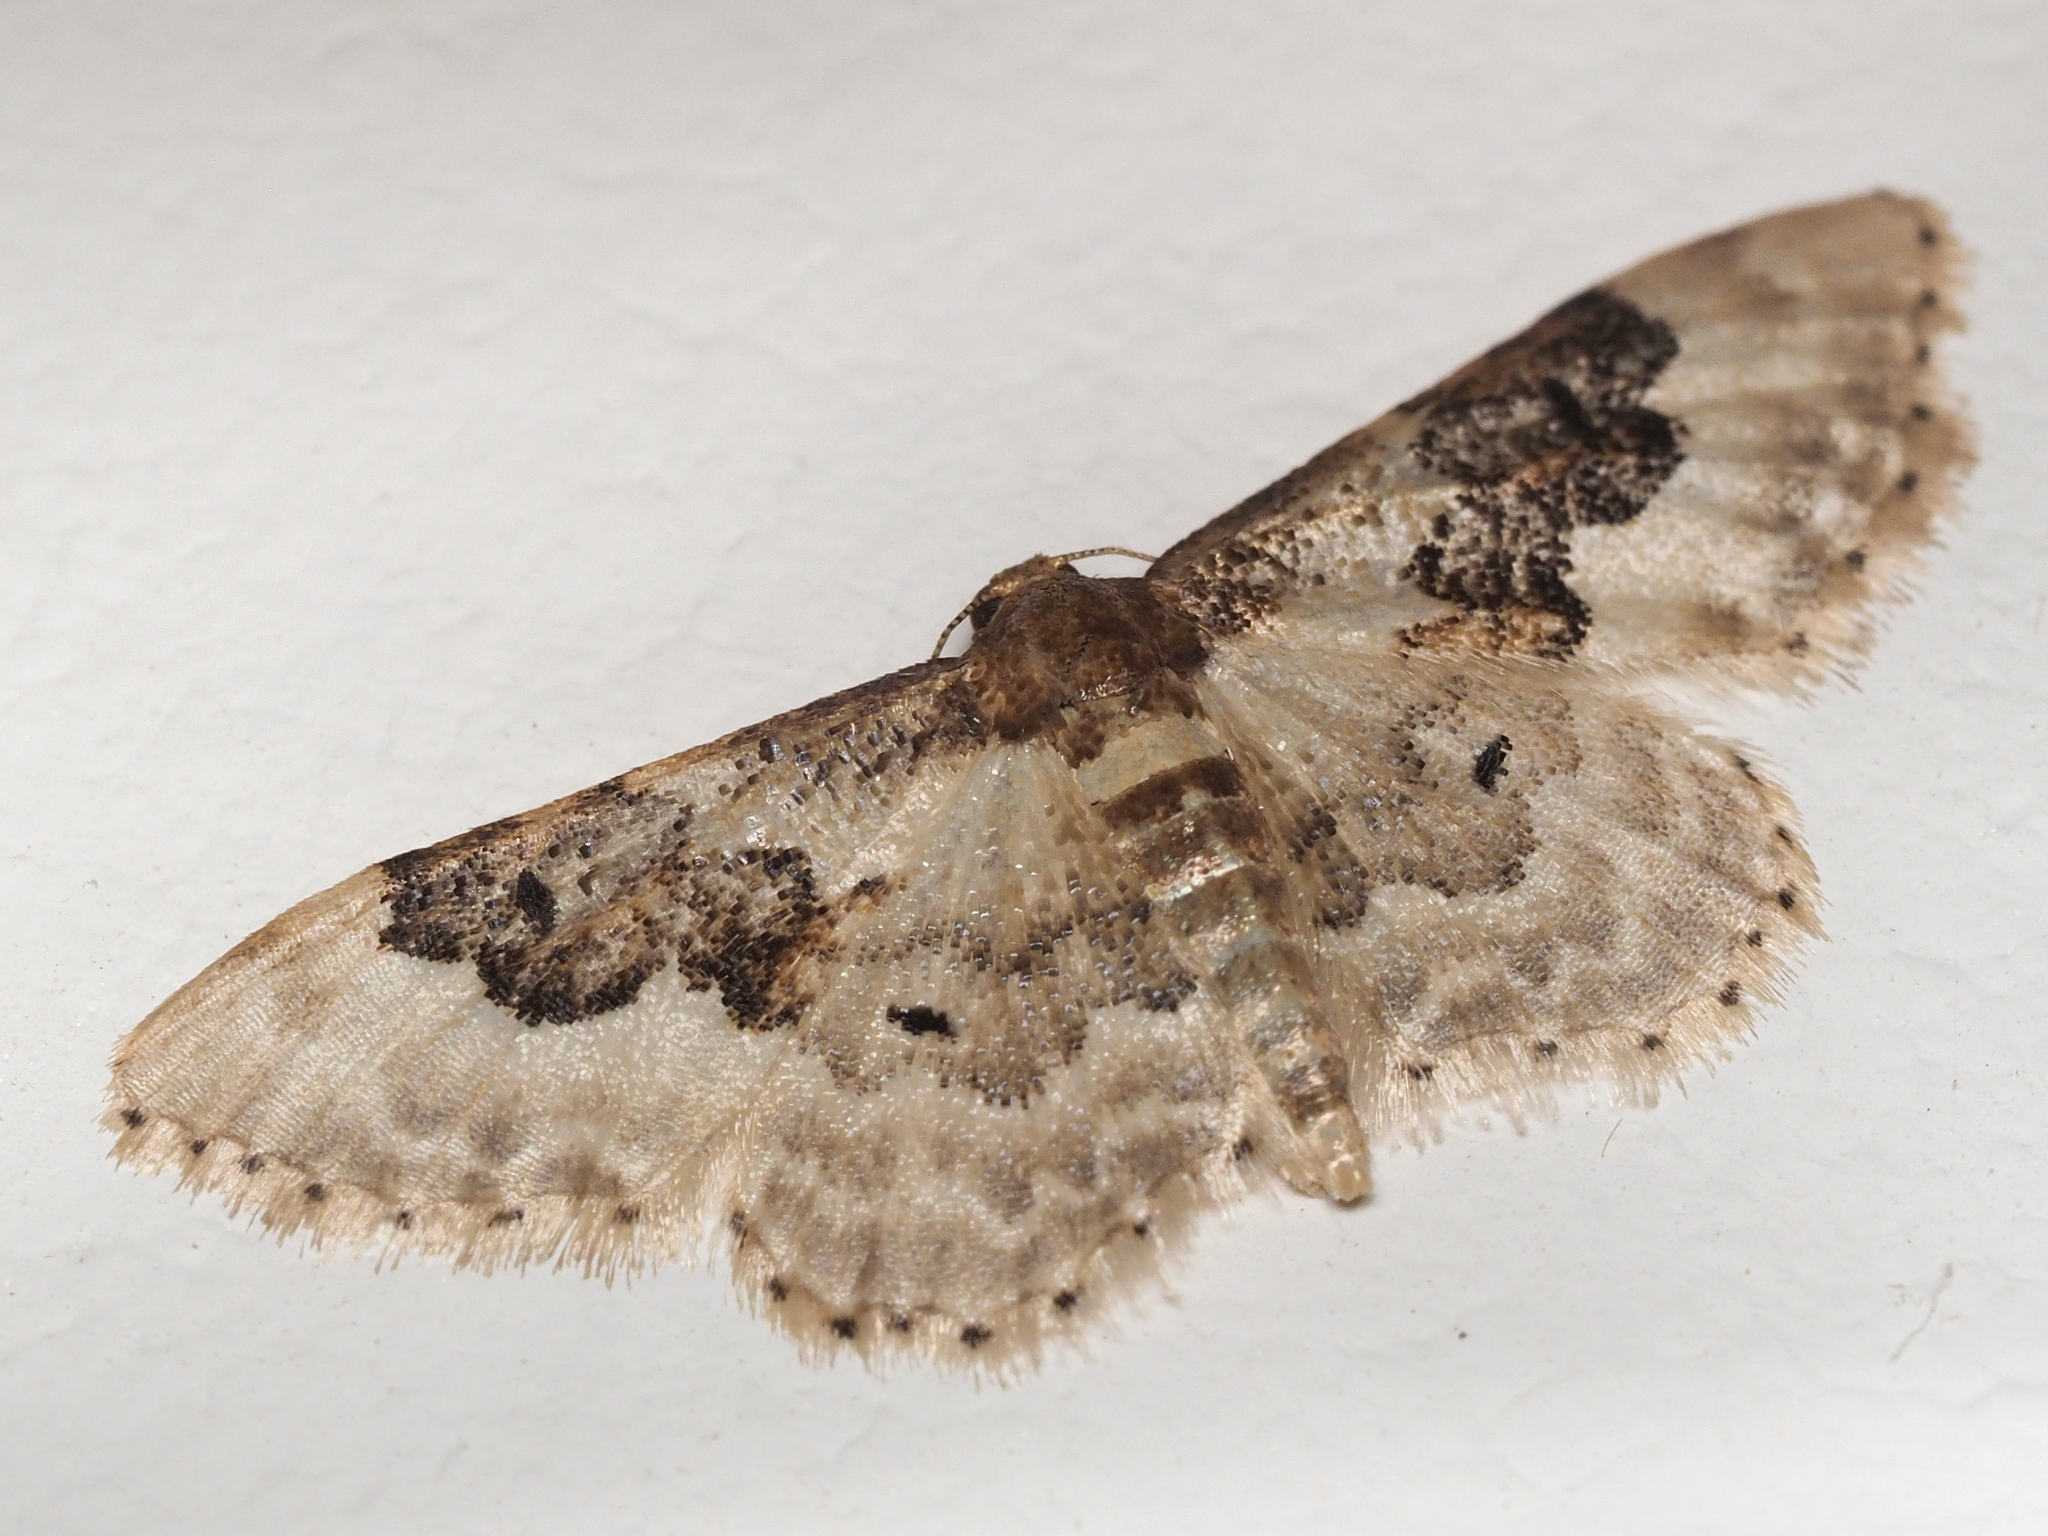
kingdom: Animalia
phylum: Arthropoda
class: Insecta
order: Lepidoptera
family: Geometridae
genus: Idaea
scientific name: Idaea rusticata
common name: Least carpet
